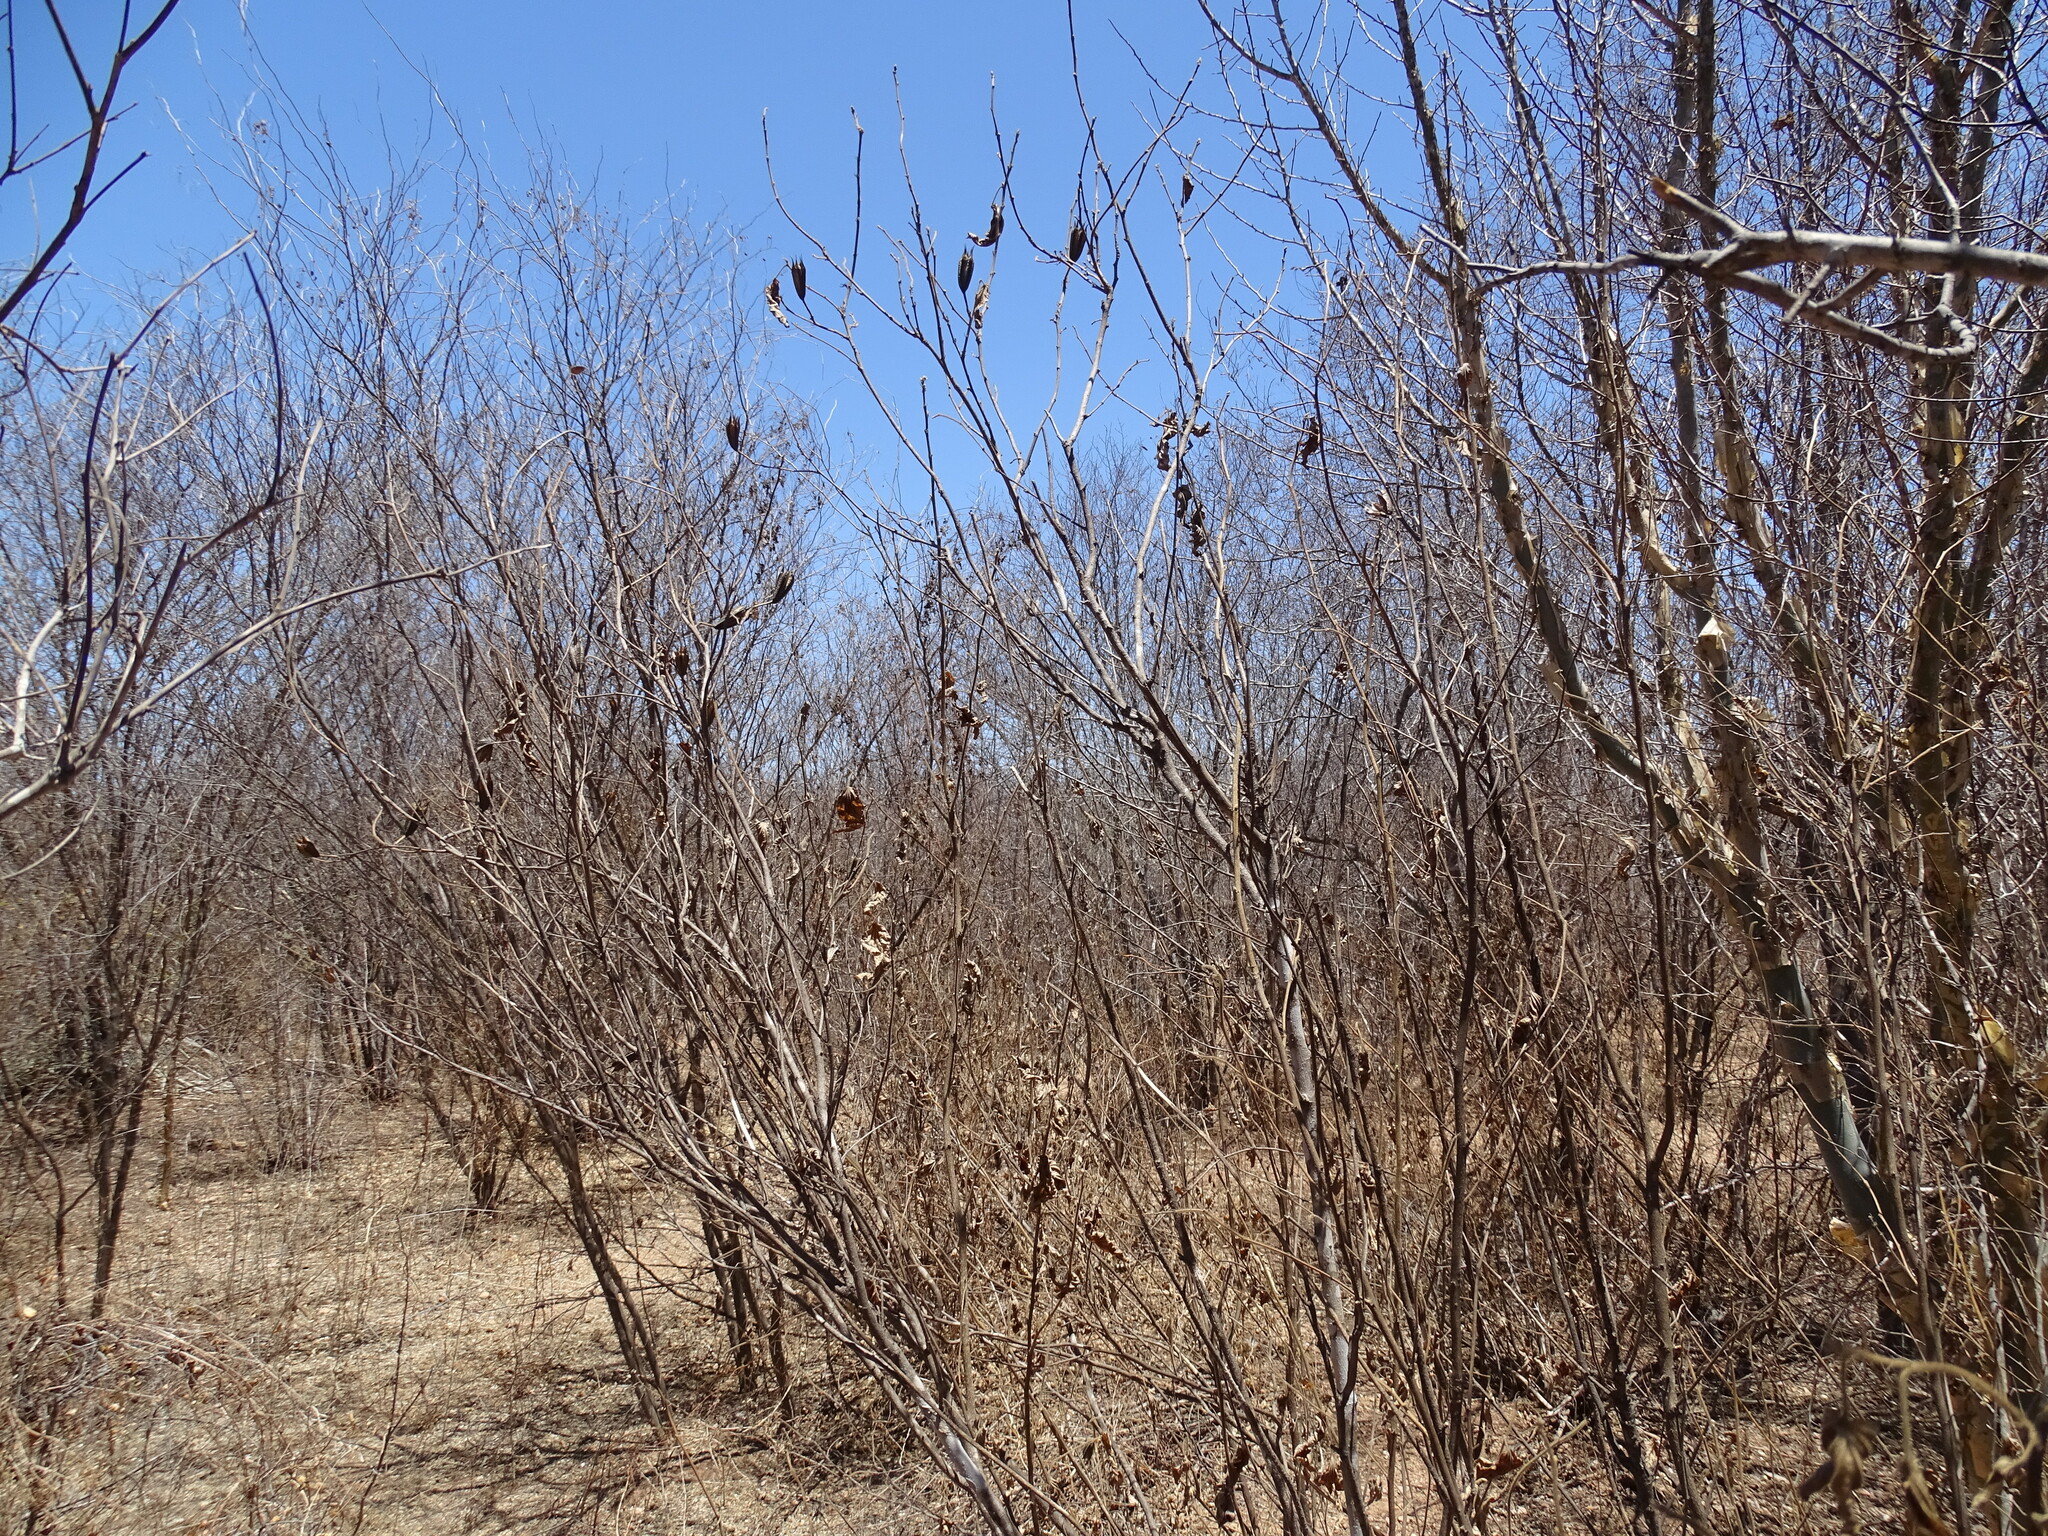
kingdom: Plantae
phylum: Tracheophyta
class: Magnoliopsida
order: Malvales
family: Malvaceae
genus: Helicteres
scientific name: Helicteres vegae
